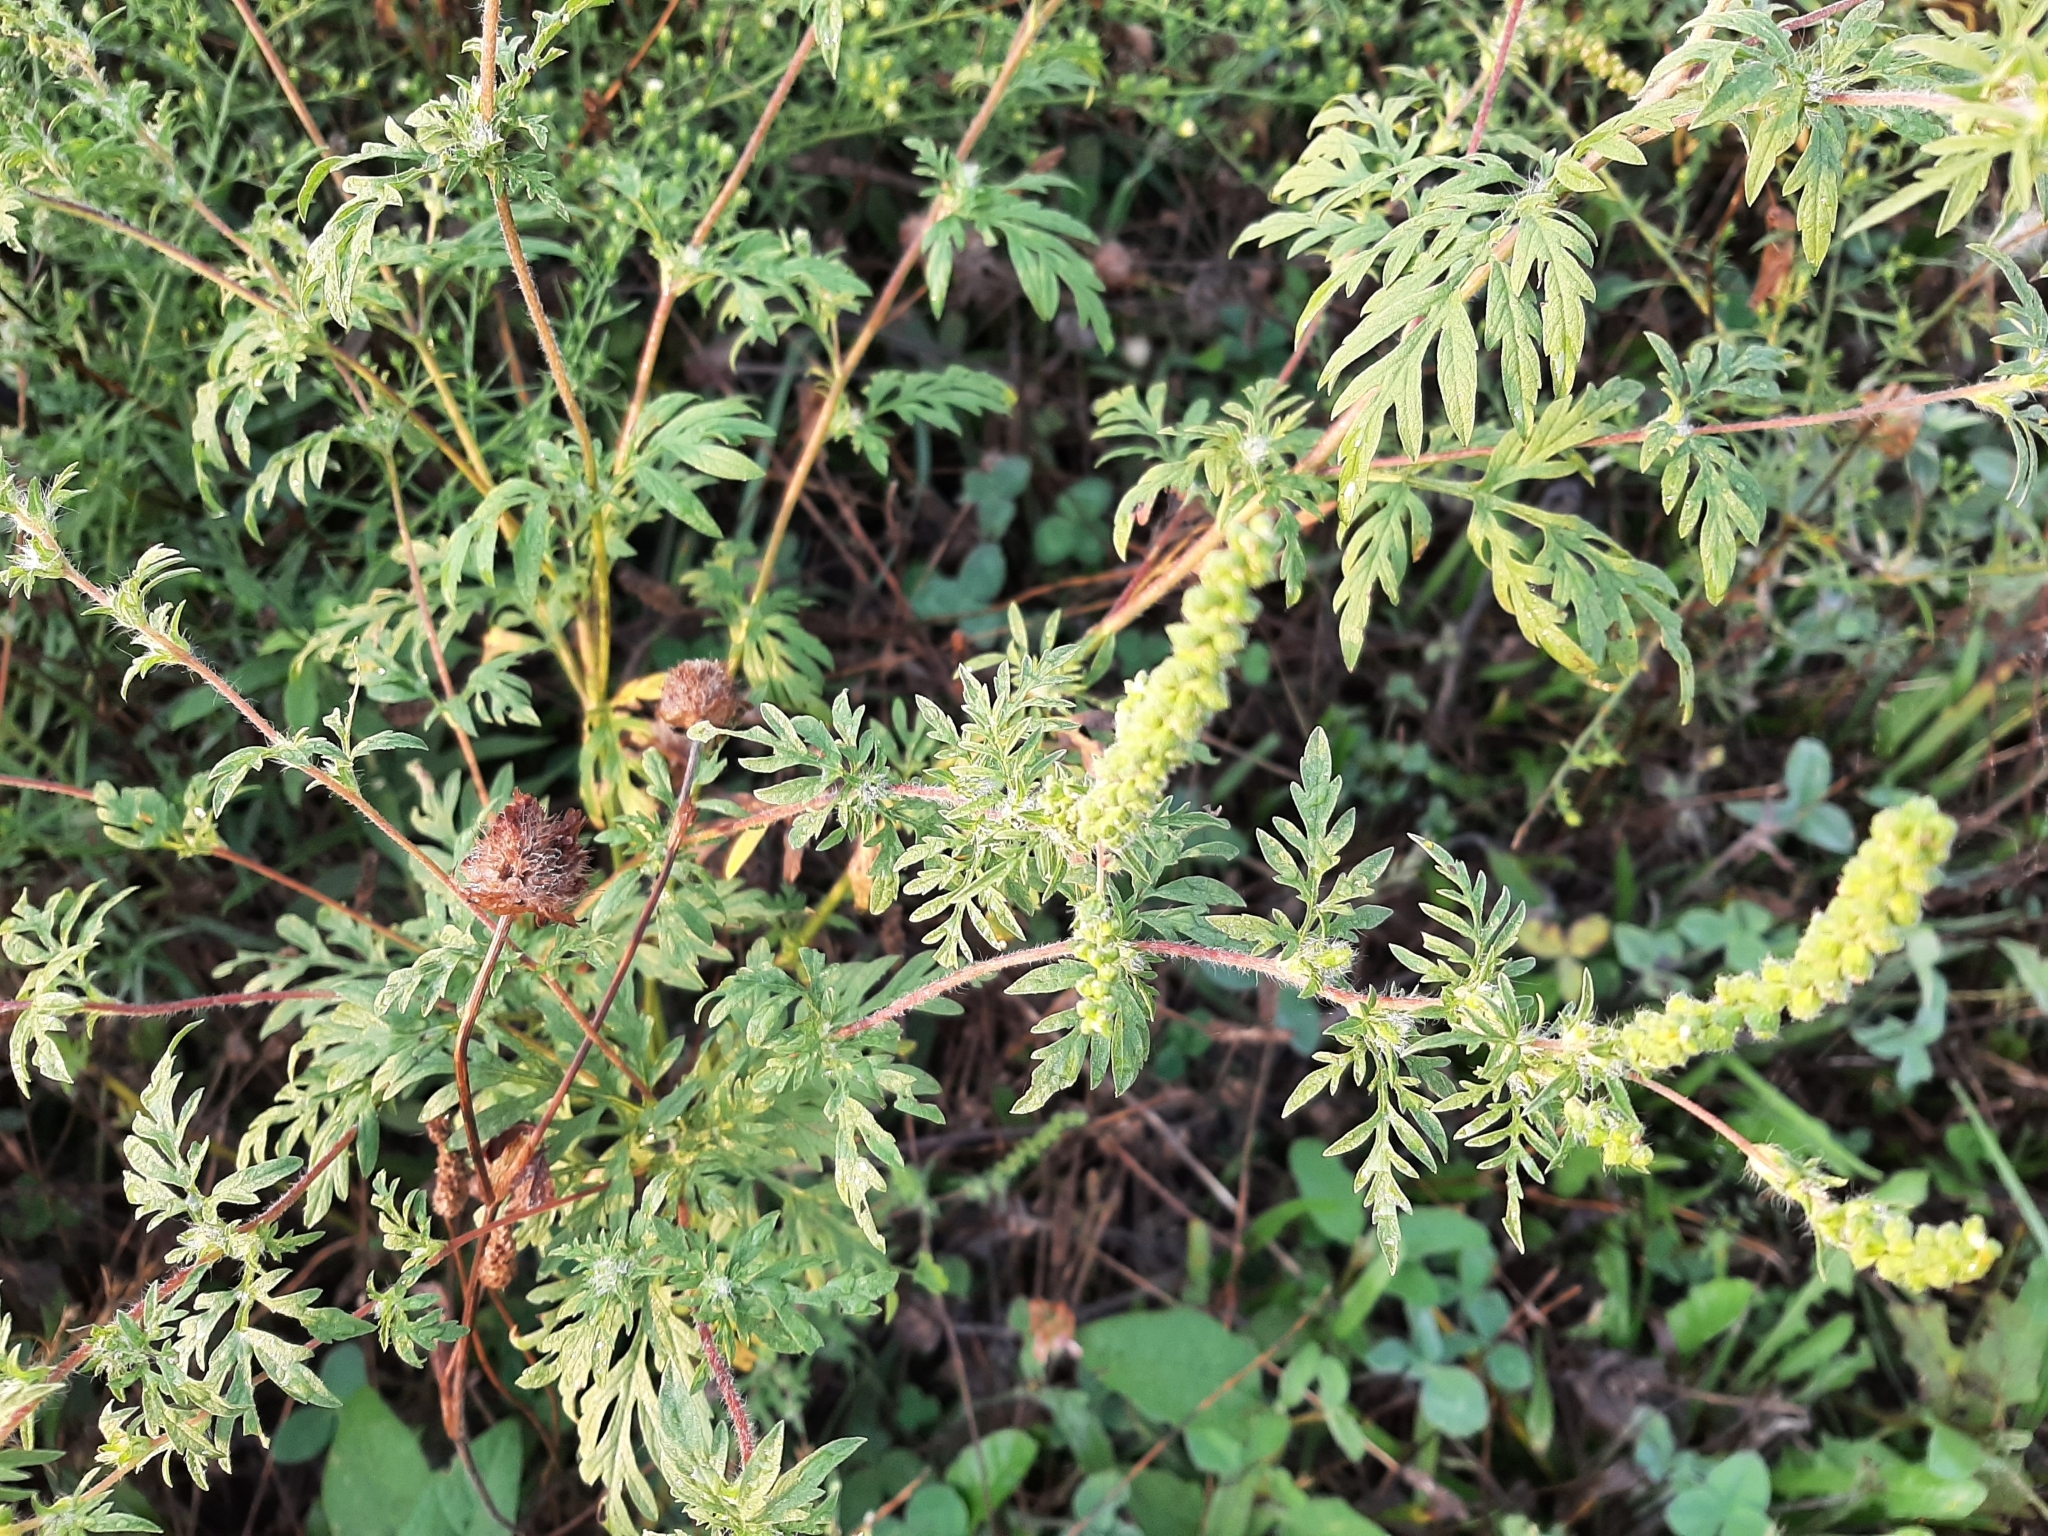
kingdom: Plantae
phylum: Tracheophyta
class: Magnoliopsida
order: Asterales
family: Asteraceae
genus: Ambrosia
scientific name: Ambrosia artemisiifolia
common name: Annual ragweed
